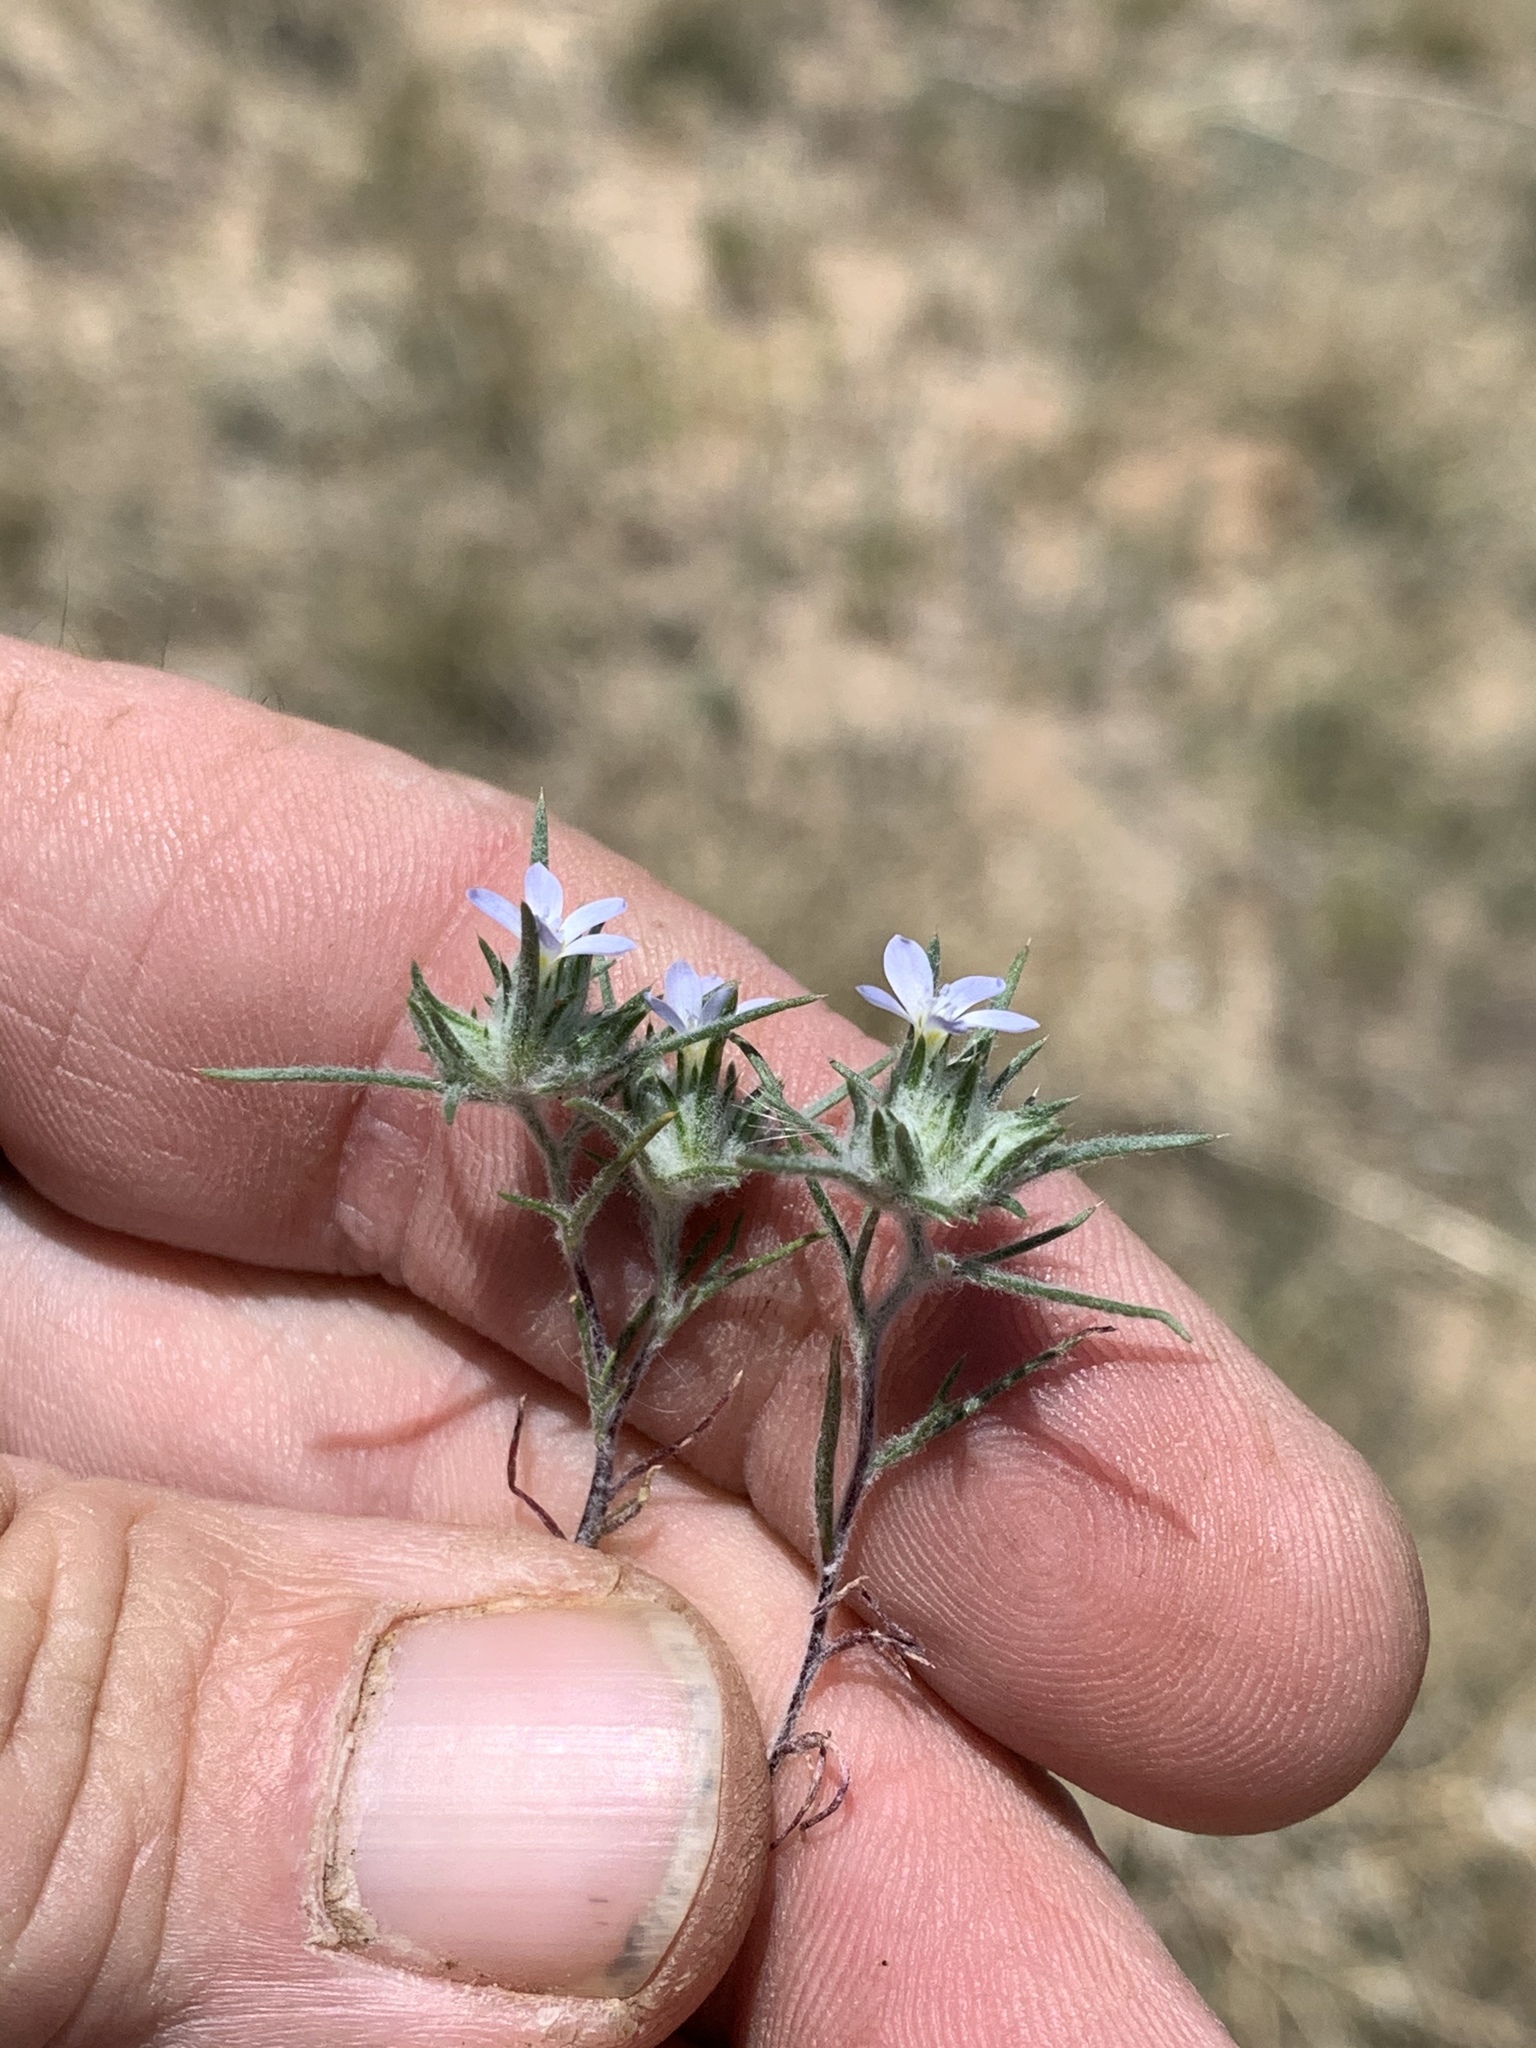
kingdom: Plantae
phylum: Tracheophyta
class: Magnoliopsida
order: Ericales
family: Polemoniaceae
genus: Eriastrum
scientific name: Eriastrum diffusum
